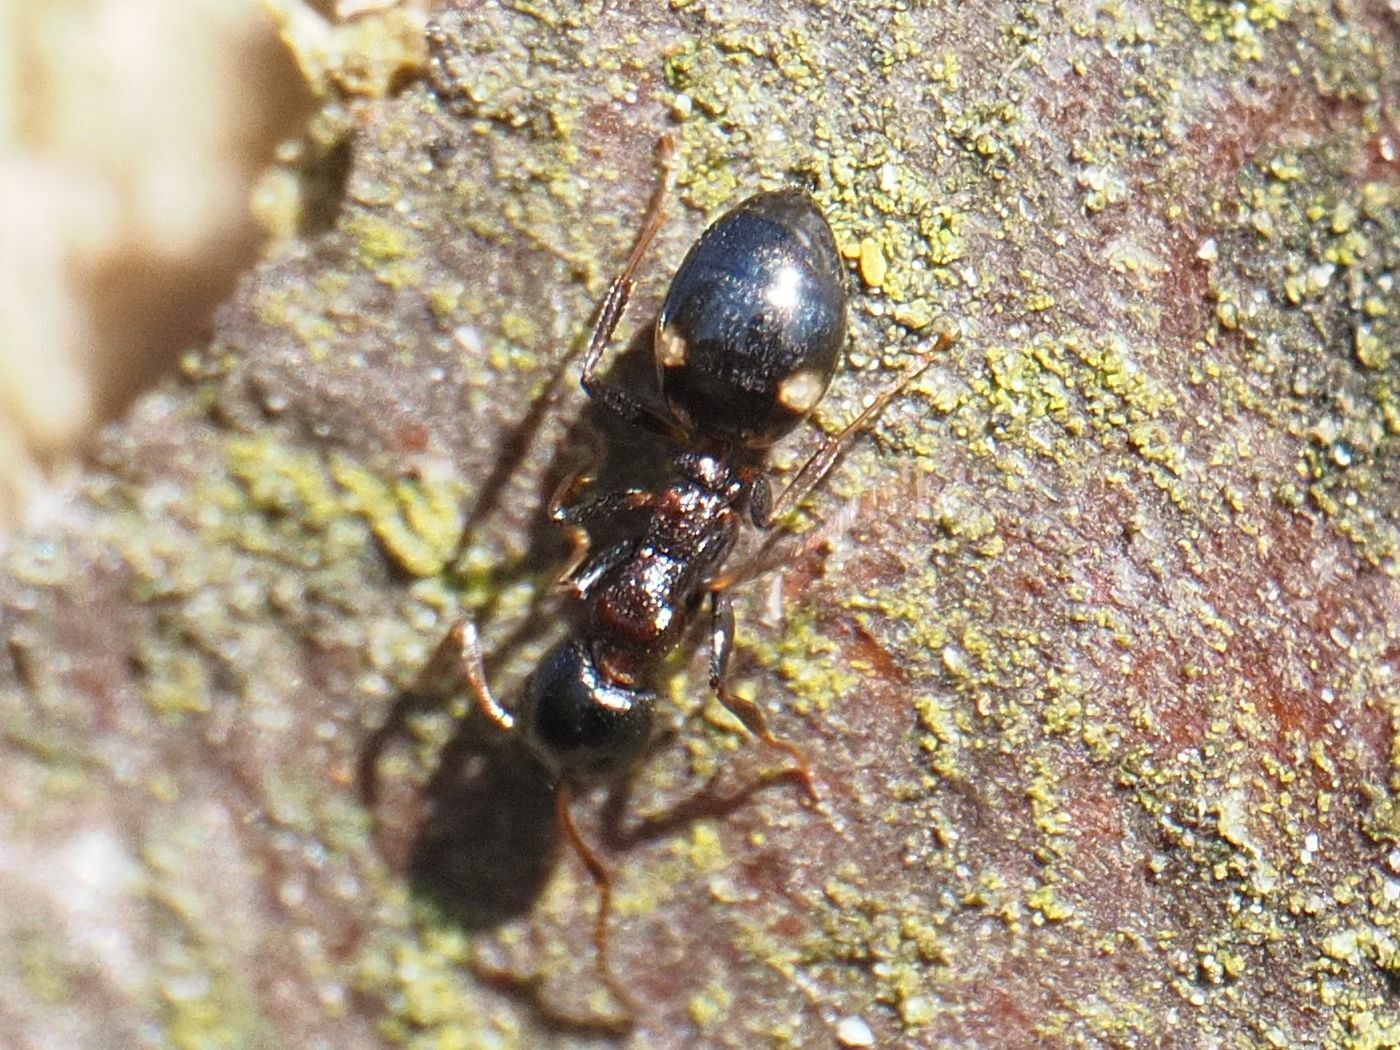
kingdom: Animalia
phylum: Arthropoda
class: Insecta
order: Hymenoptera
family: Formicidae
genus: Dolichoderus
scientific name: Dolichoderus quadripunctatus
